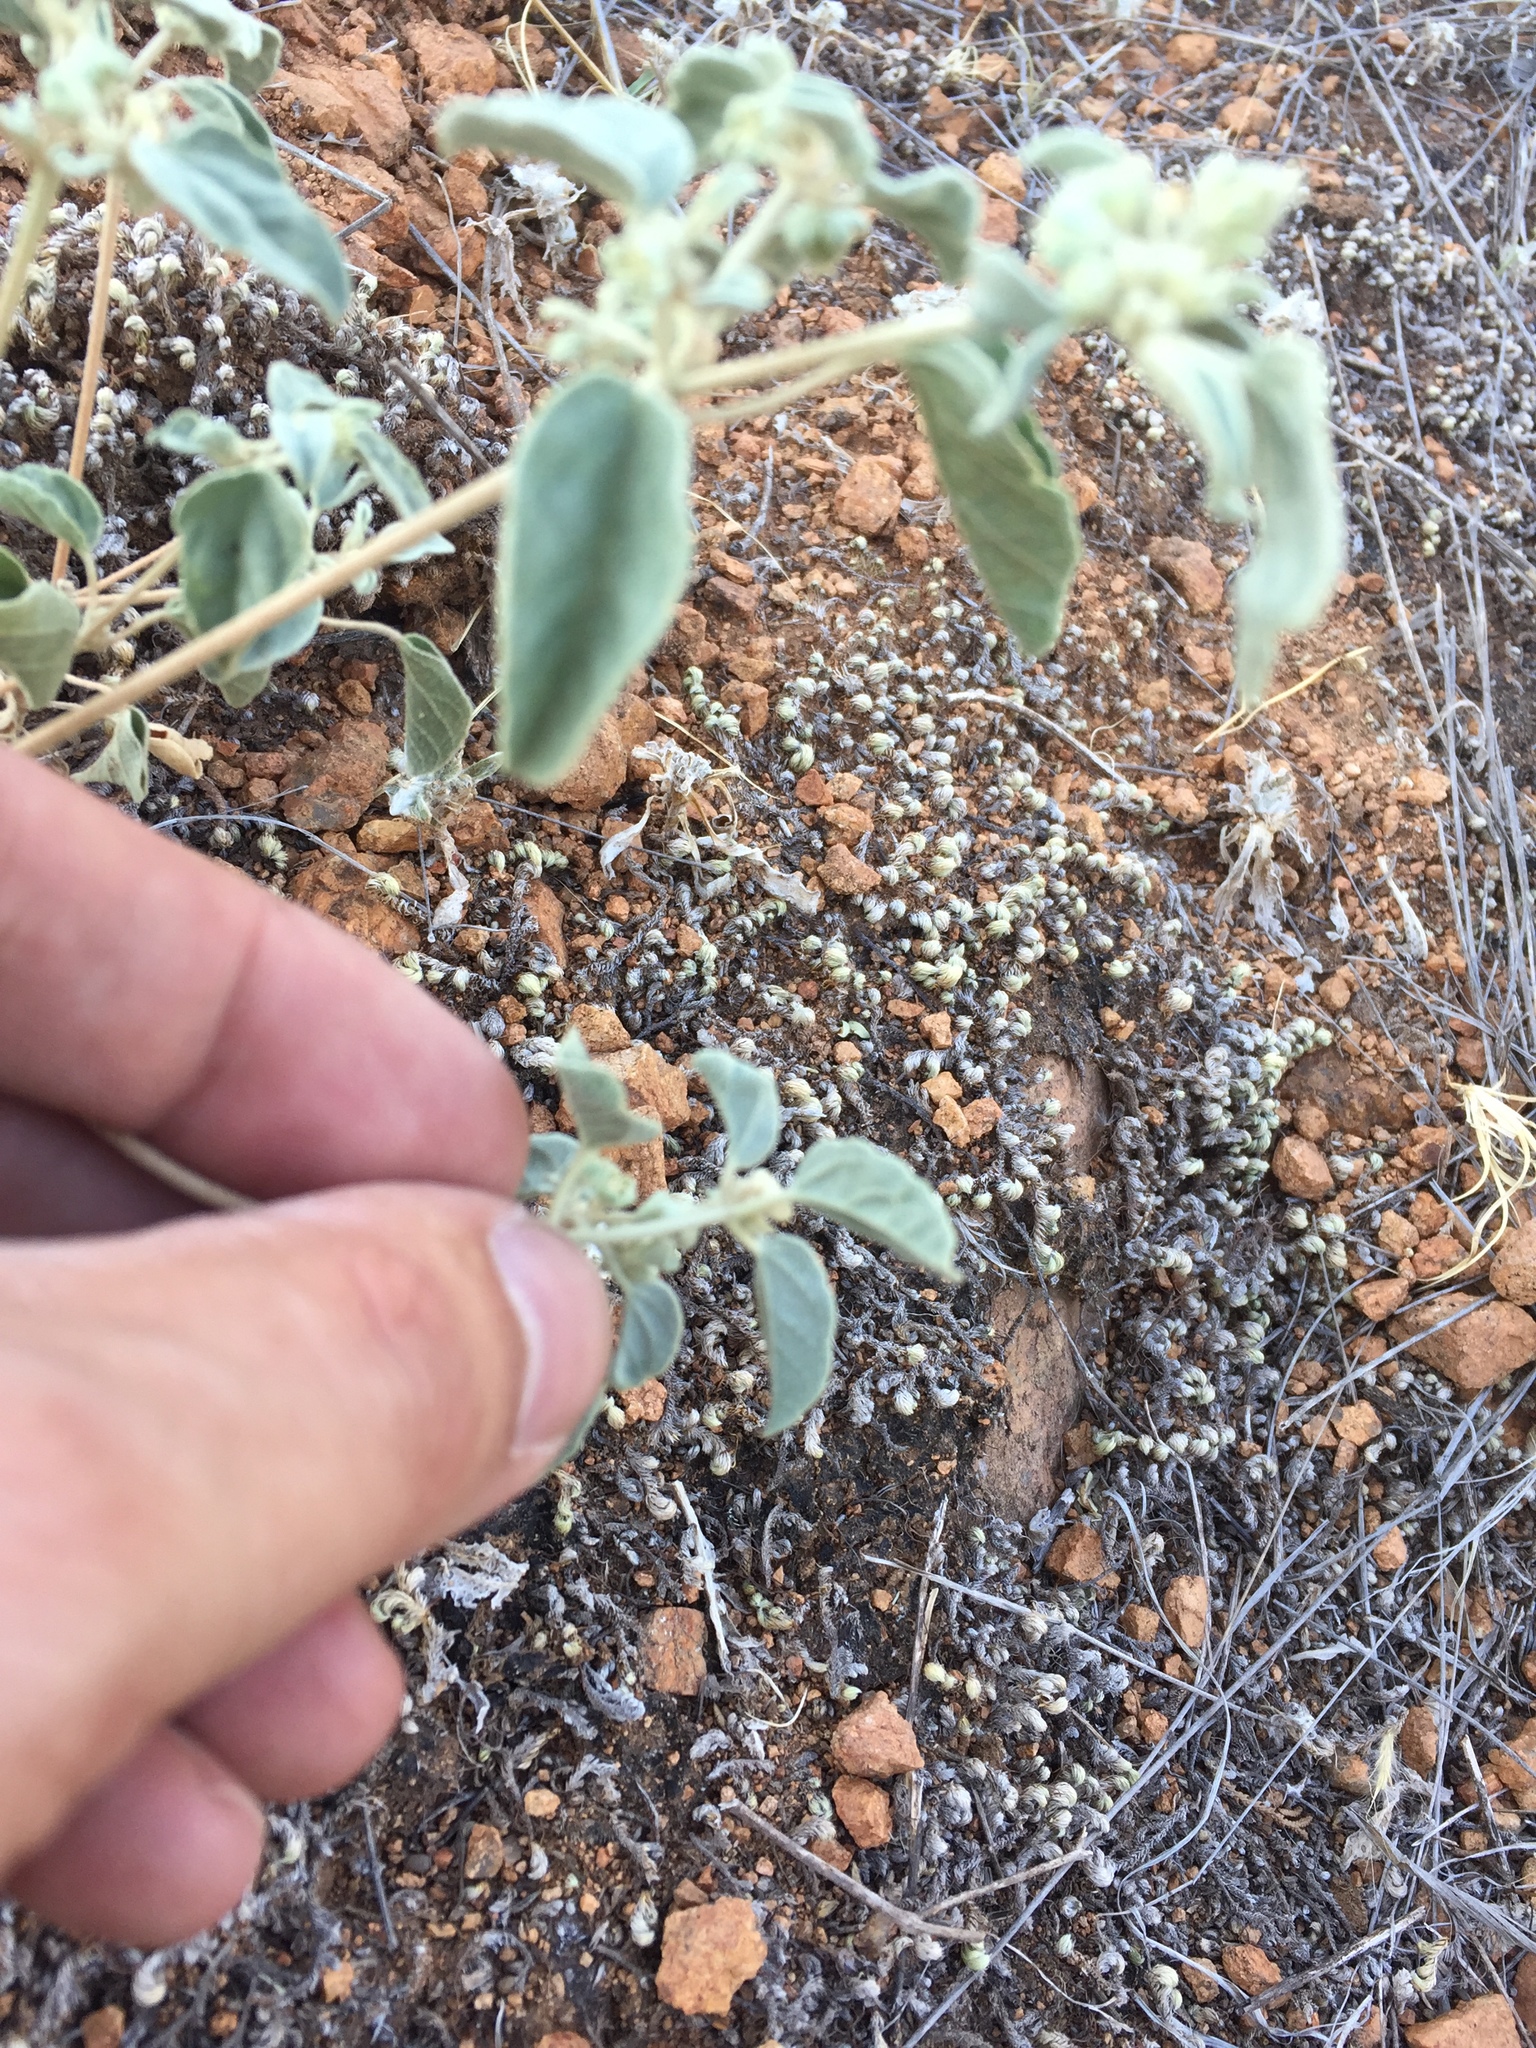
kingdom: Plantae
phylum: Tracheophyta
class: Magnoliopsida
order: Malpighiales
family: Euphorbiaceae
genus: Croton
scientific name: Croton lindheimerianus
